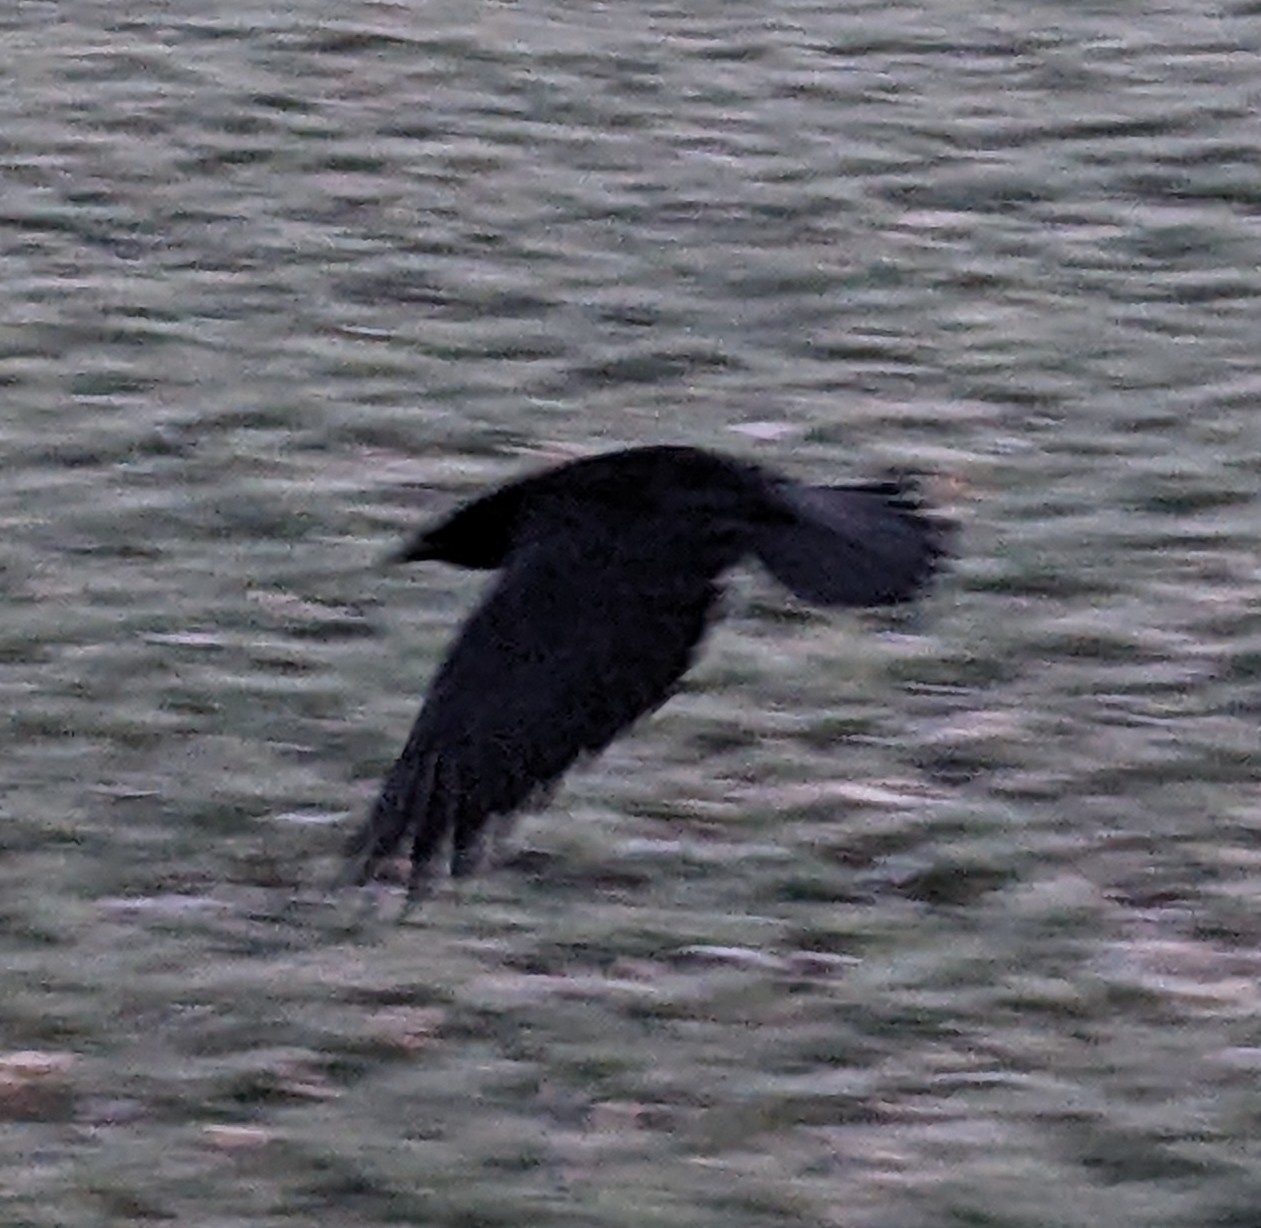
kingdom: Animalia
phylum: Chordata
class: Aves
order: Passeriformes
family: Corvidae
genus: Corvus
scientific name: Corvus corone
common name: Carrion crow
